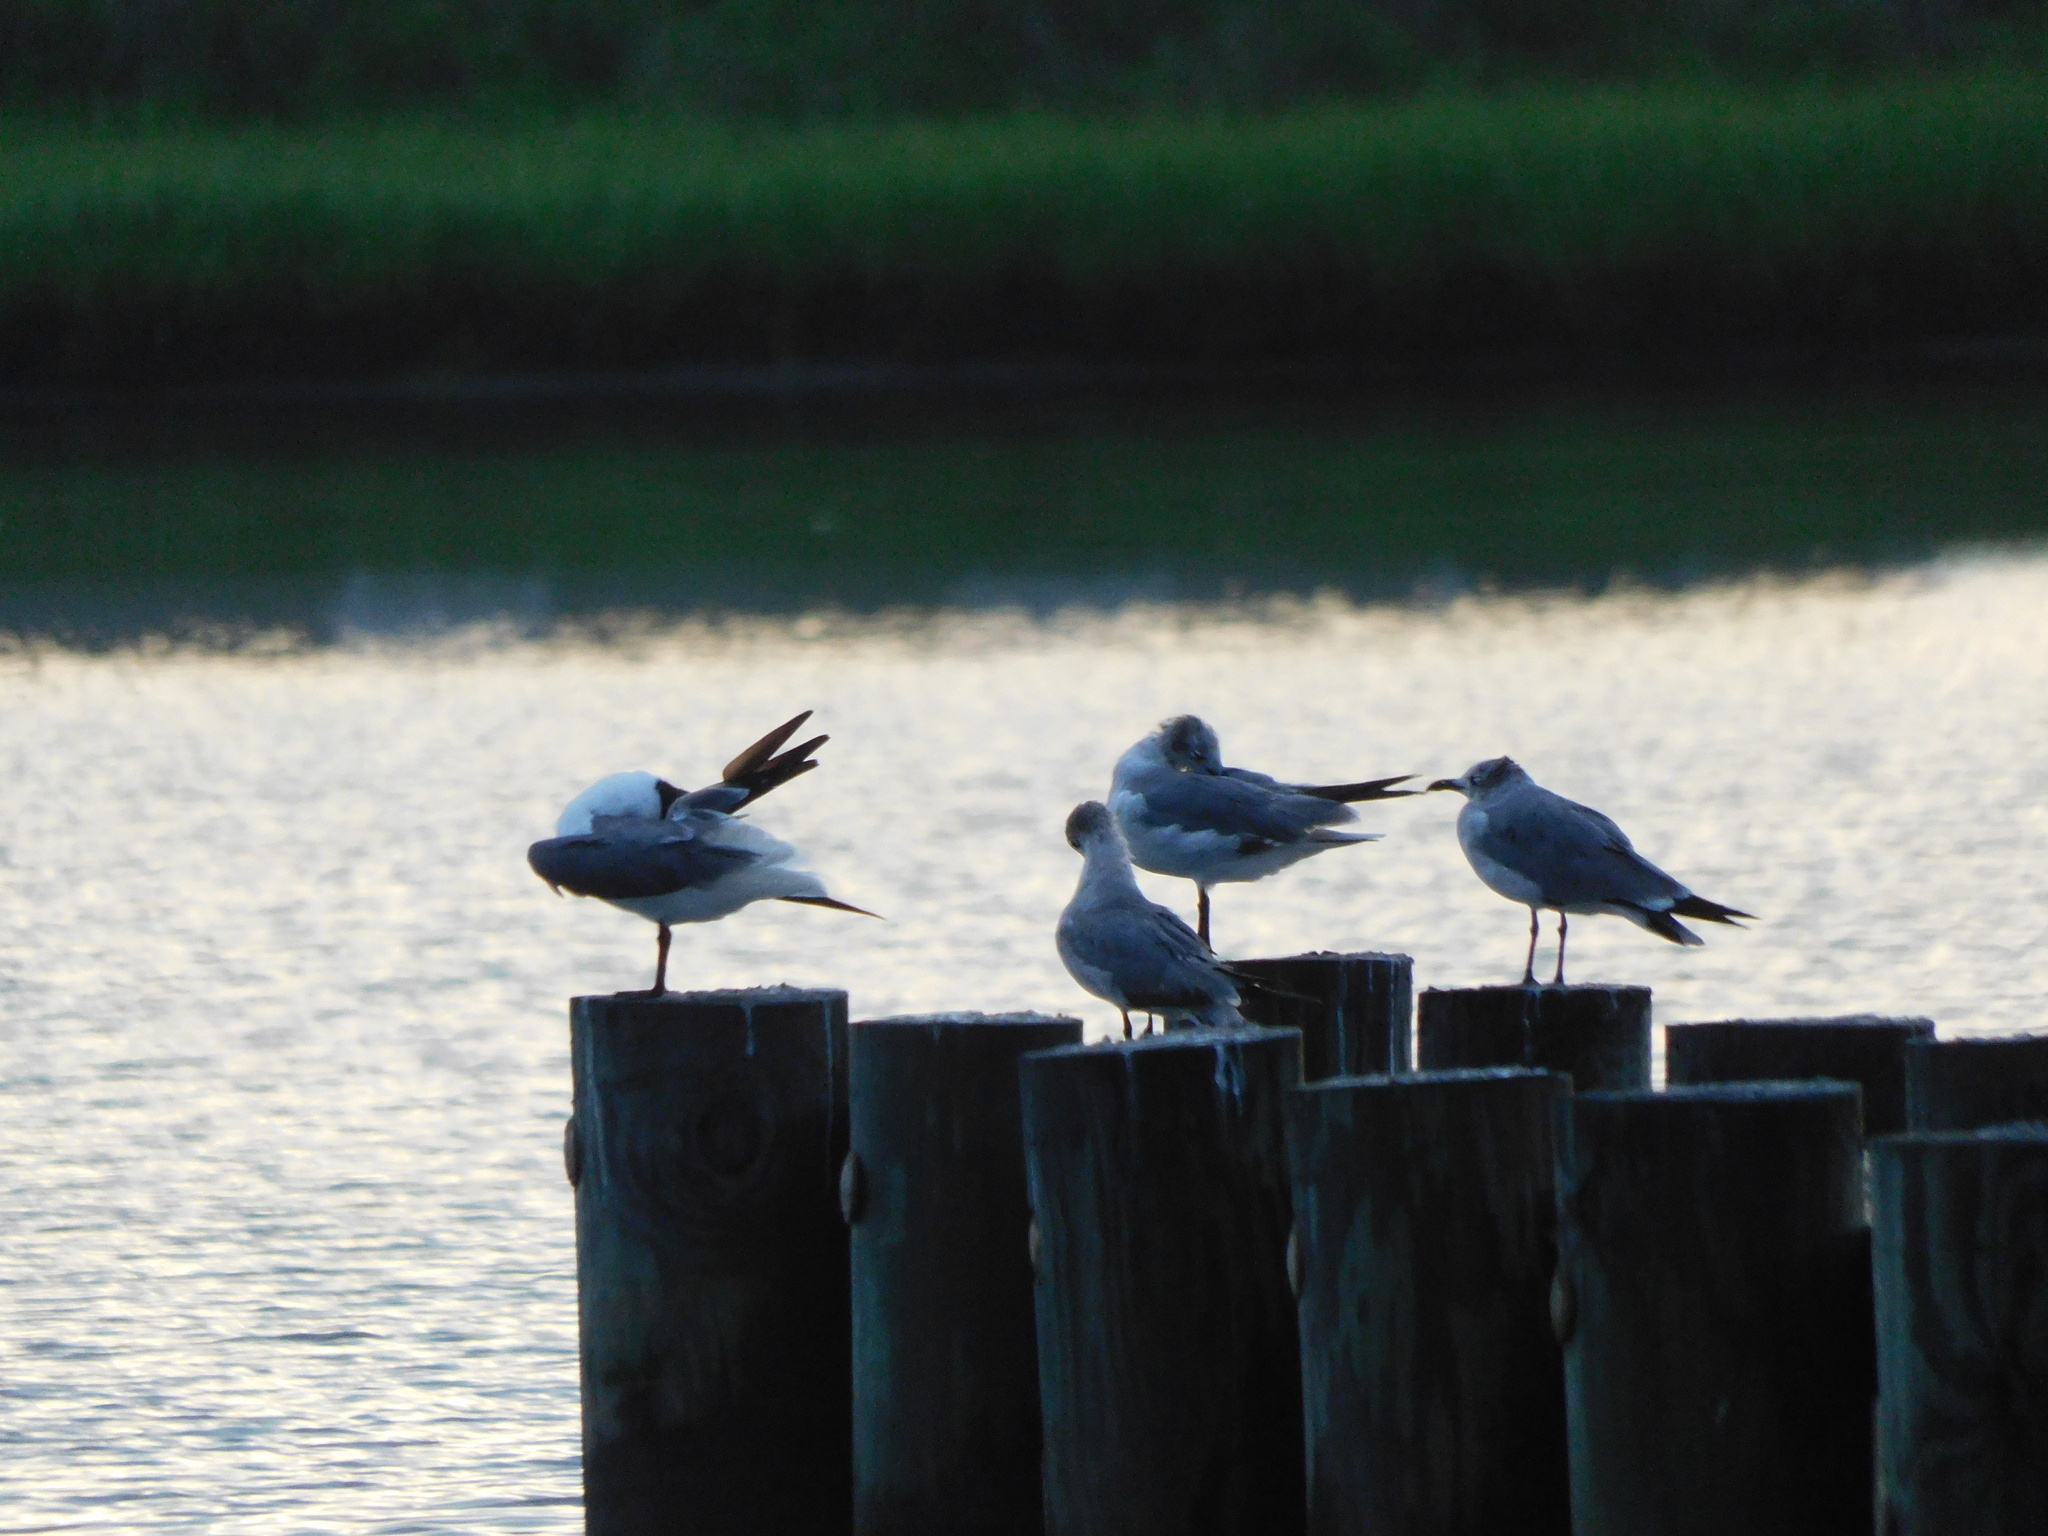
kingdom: Animalia
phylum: Chordata
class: Aves
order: Charadriiformes
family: Laridae
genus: Leucophaeus
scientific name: Leucophaeus atricilla
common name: Laughing gull
